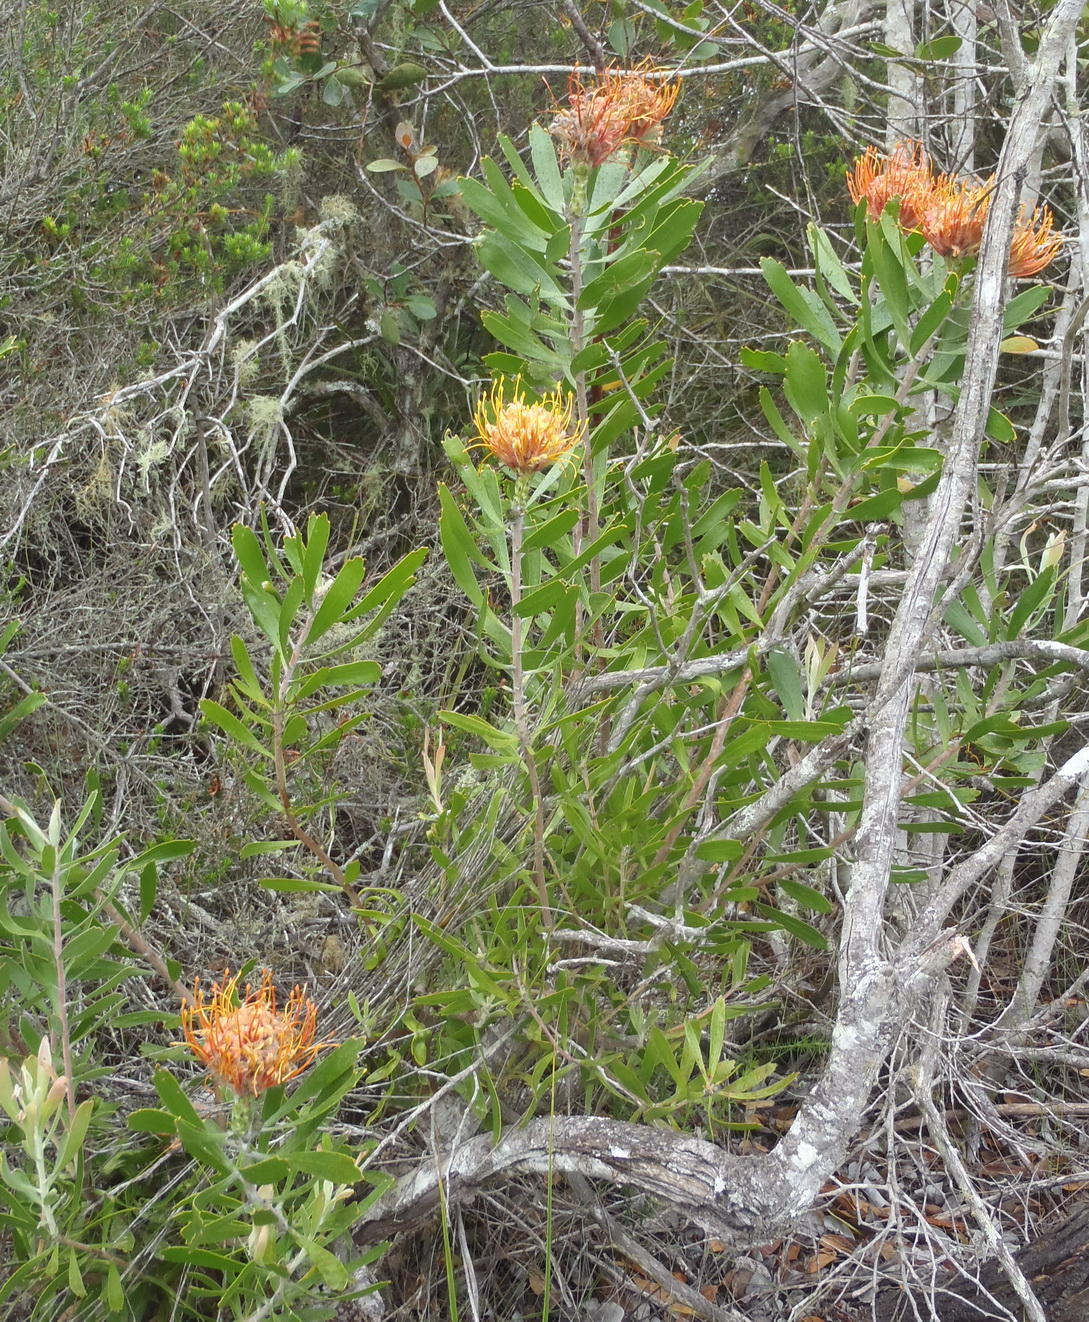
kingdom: Plantae
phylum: Tracheophyta
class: Magnoliopsida
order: Proteales
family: Proteaceae
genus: Leucospermum
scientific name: Leucospermum cuneiforme
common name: Common pincushion
